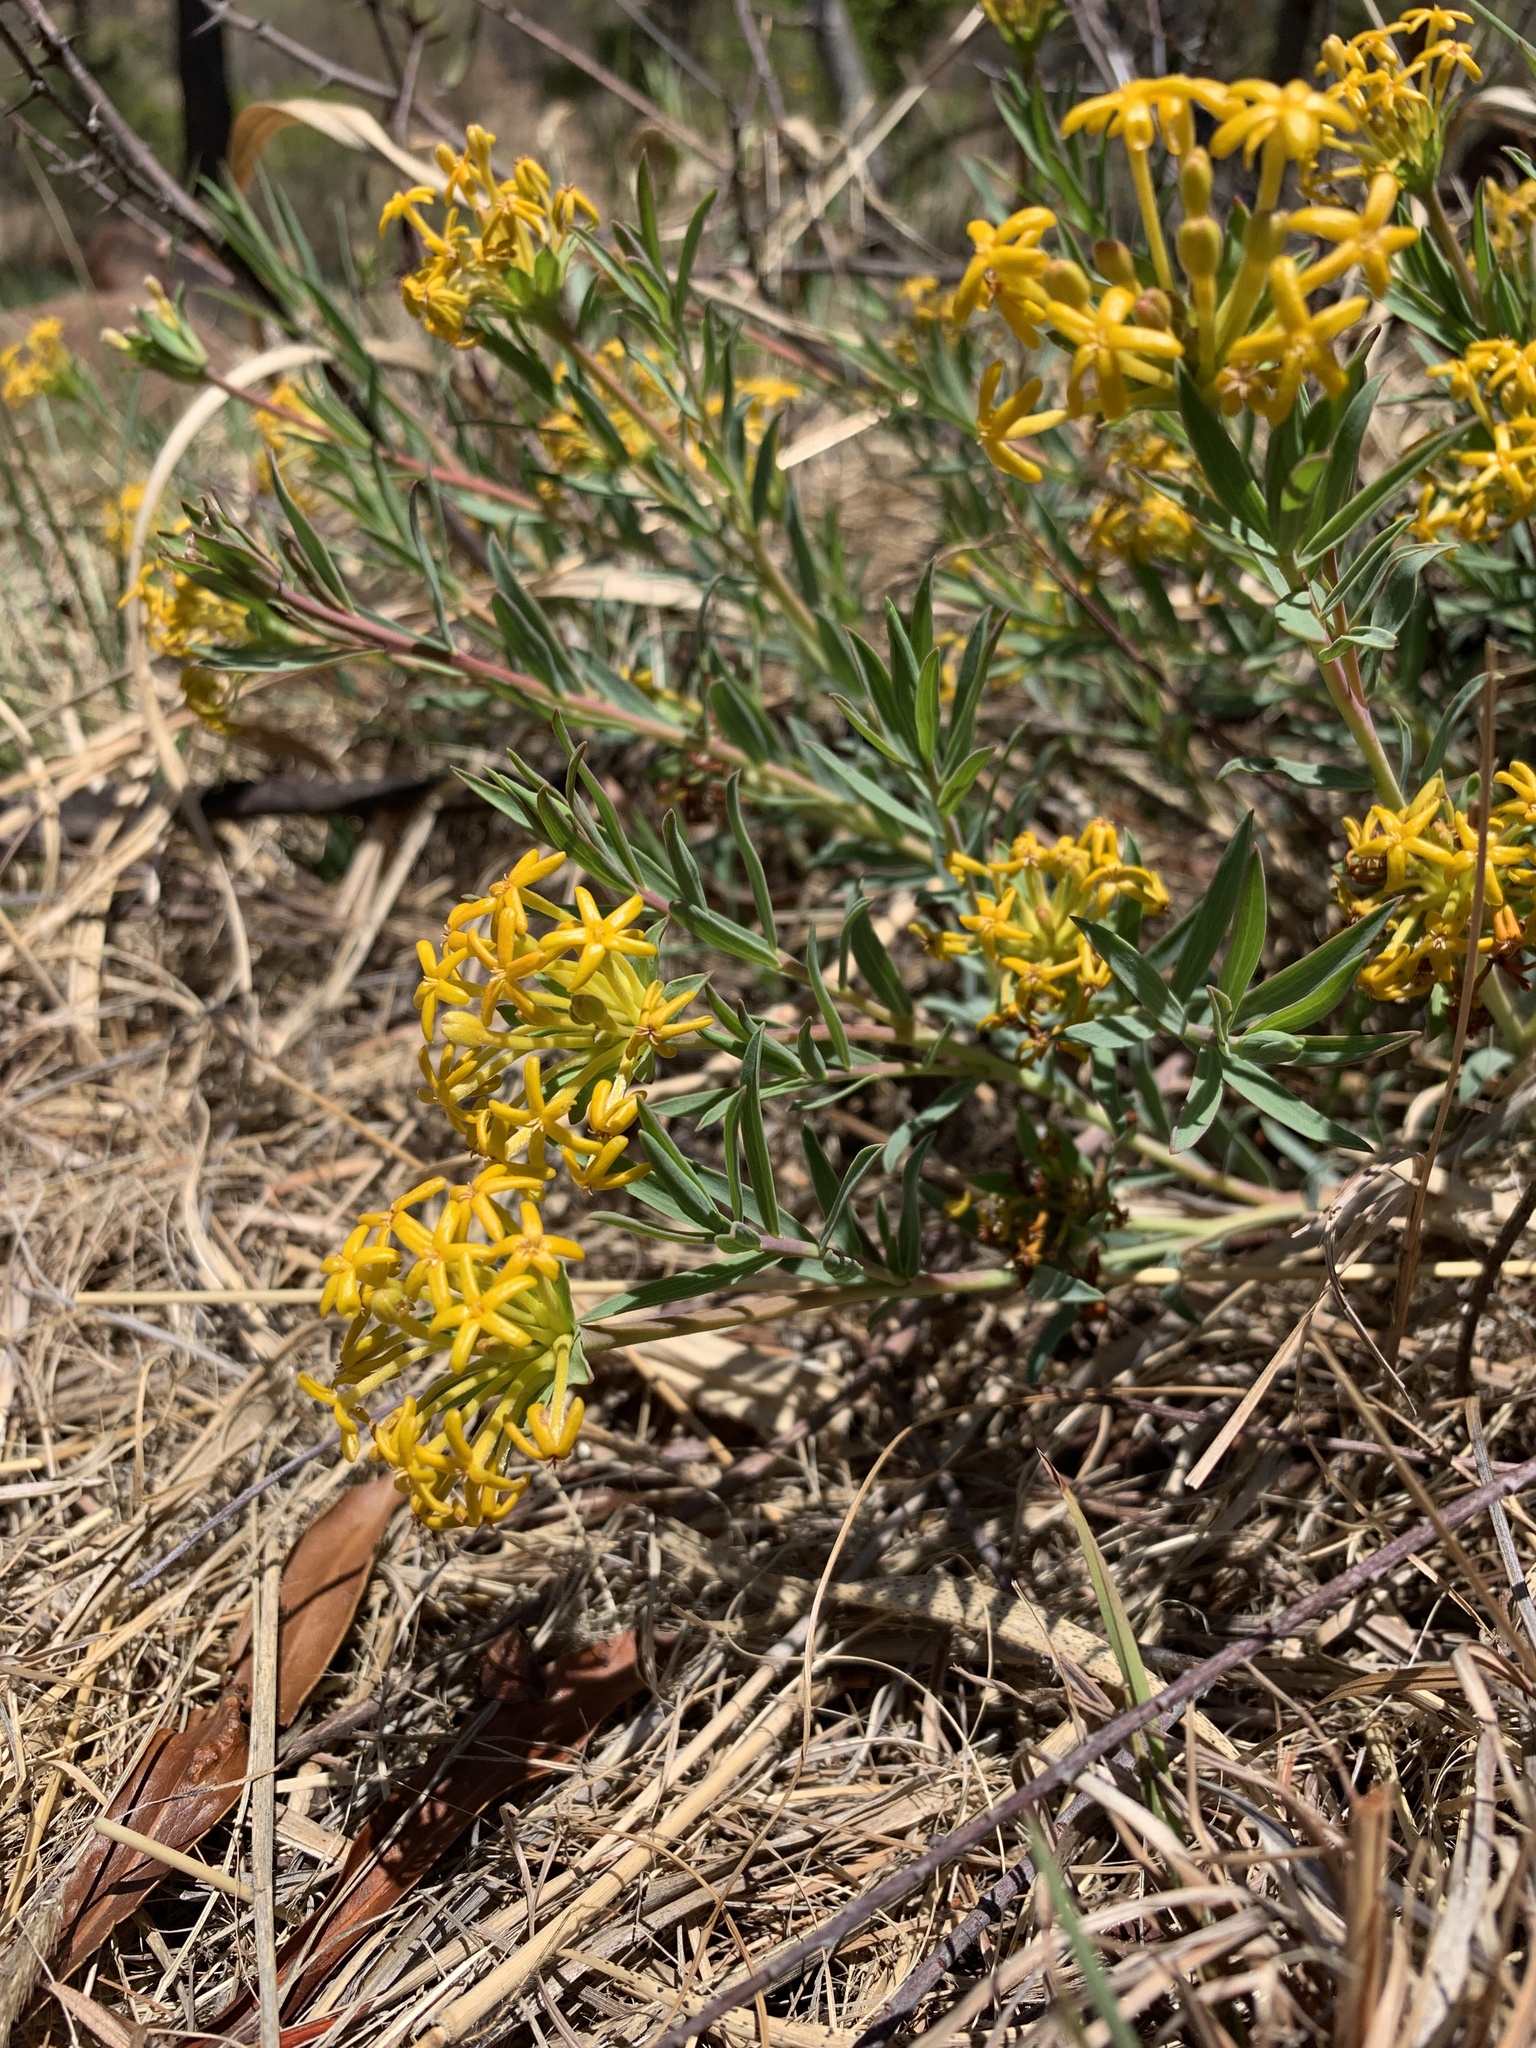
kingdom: Plantae
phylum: Tracheophyta
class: Magnoliopsida
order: Malvales
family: Thymelaeaceae
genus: Gnidia
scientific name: Gnidia capitata
